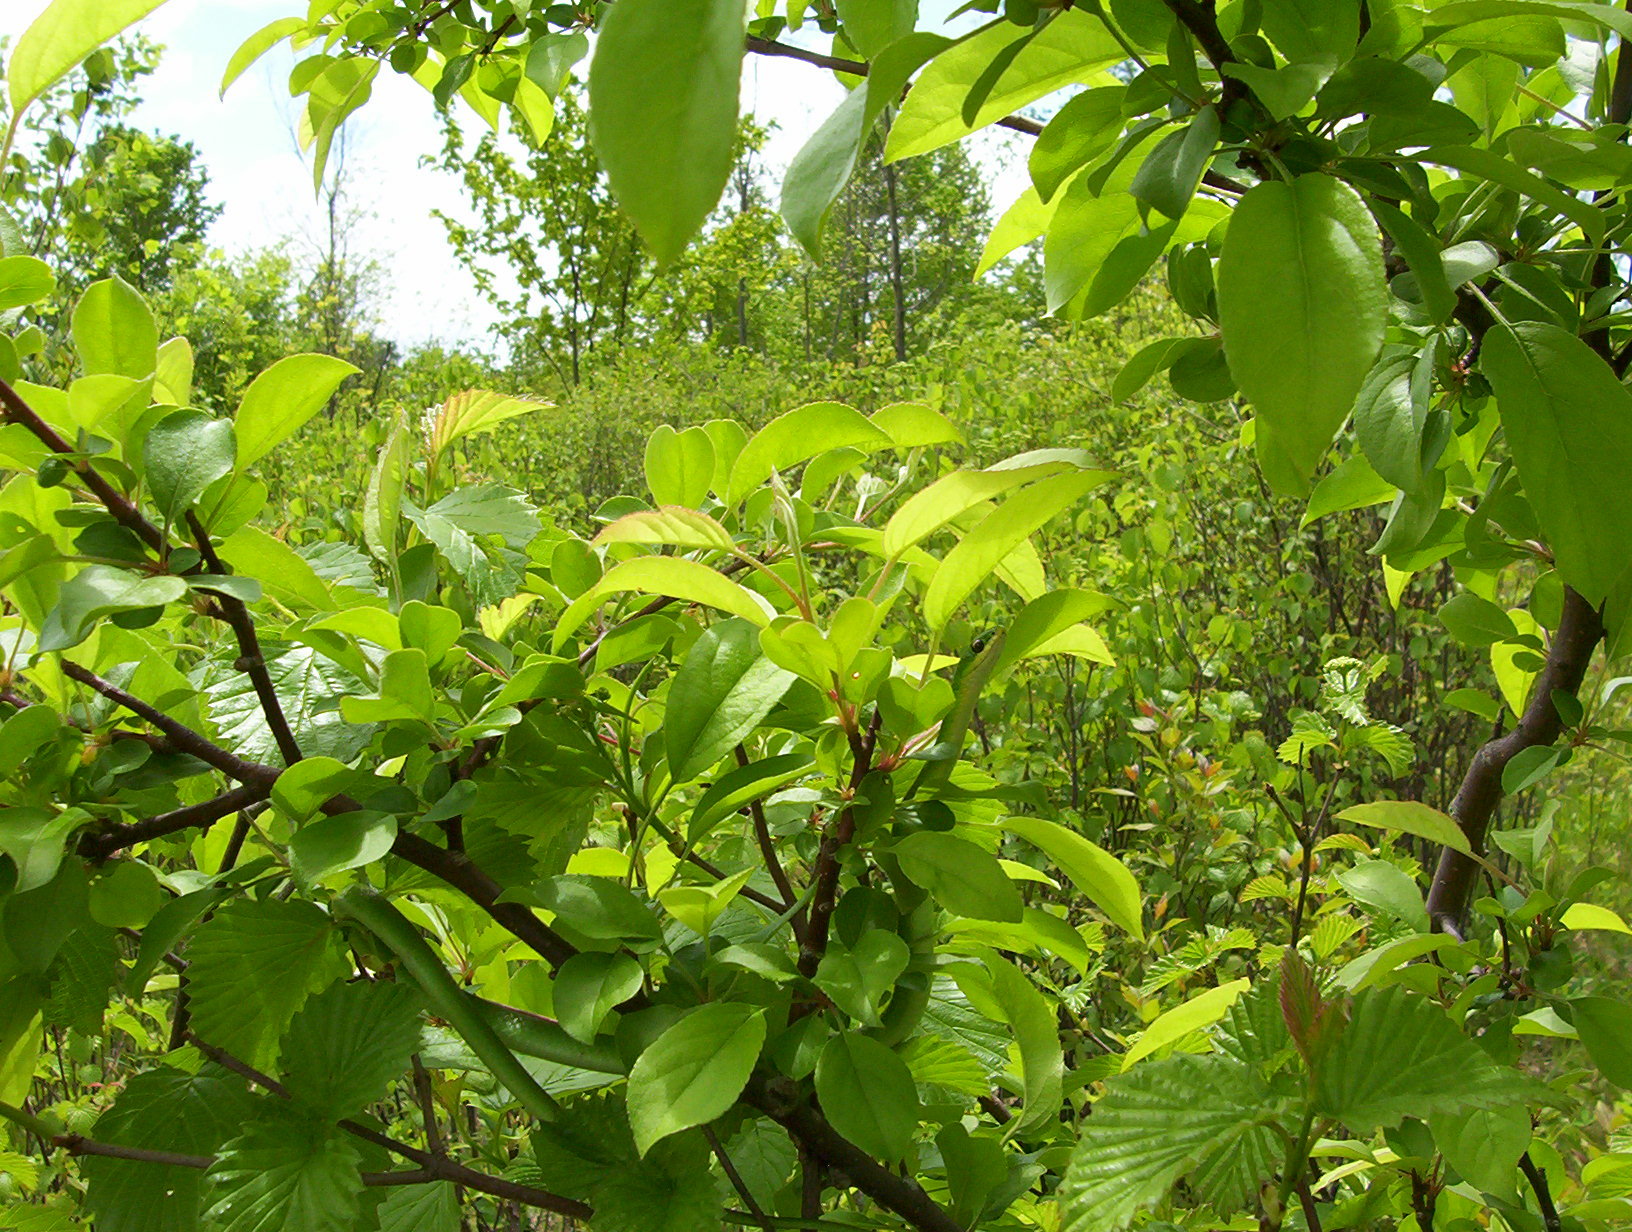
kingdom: Animalia
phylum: Chordata
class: Squamata
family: Colubridae
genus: Opheodrys
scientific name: Opheodrys vernalis
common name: Smooth green snake
